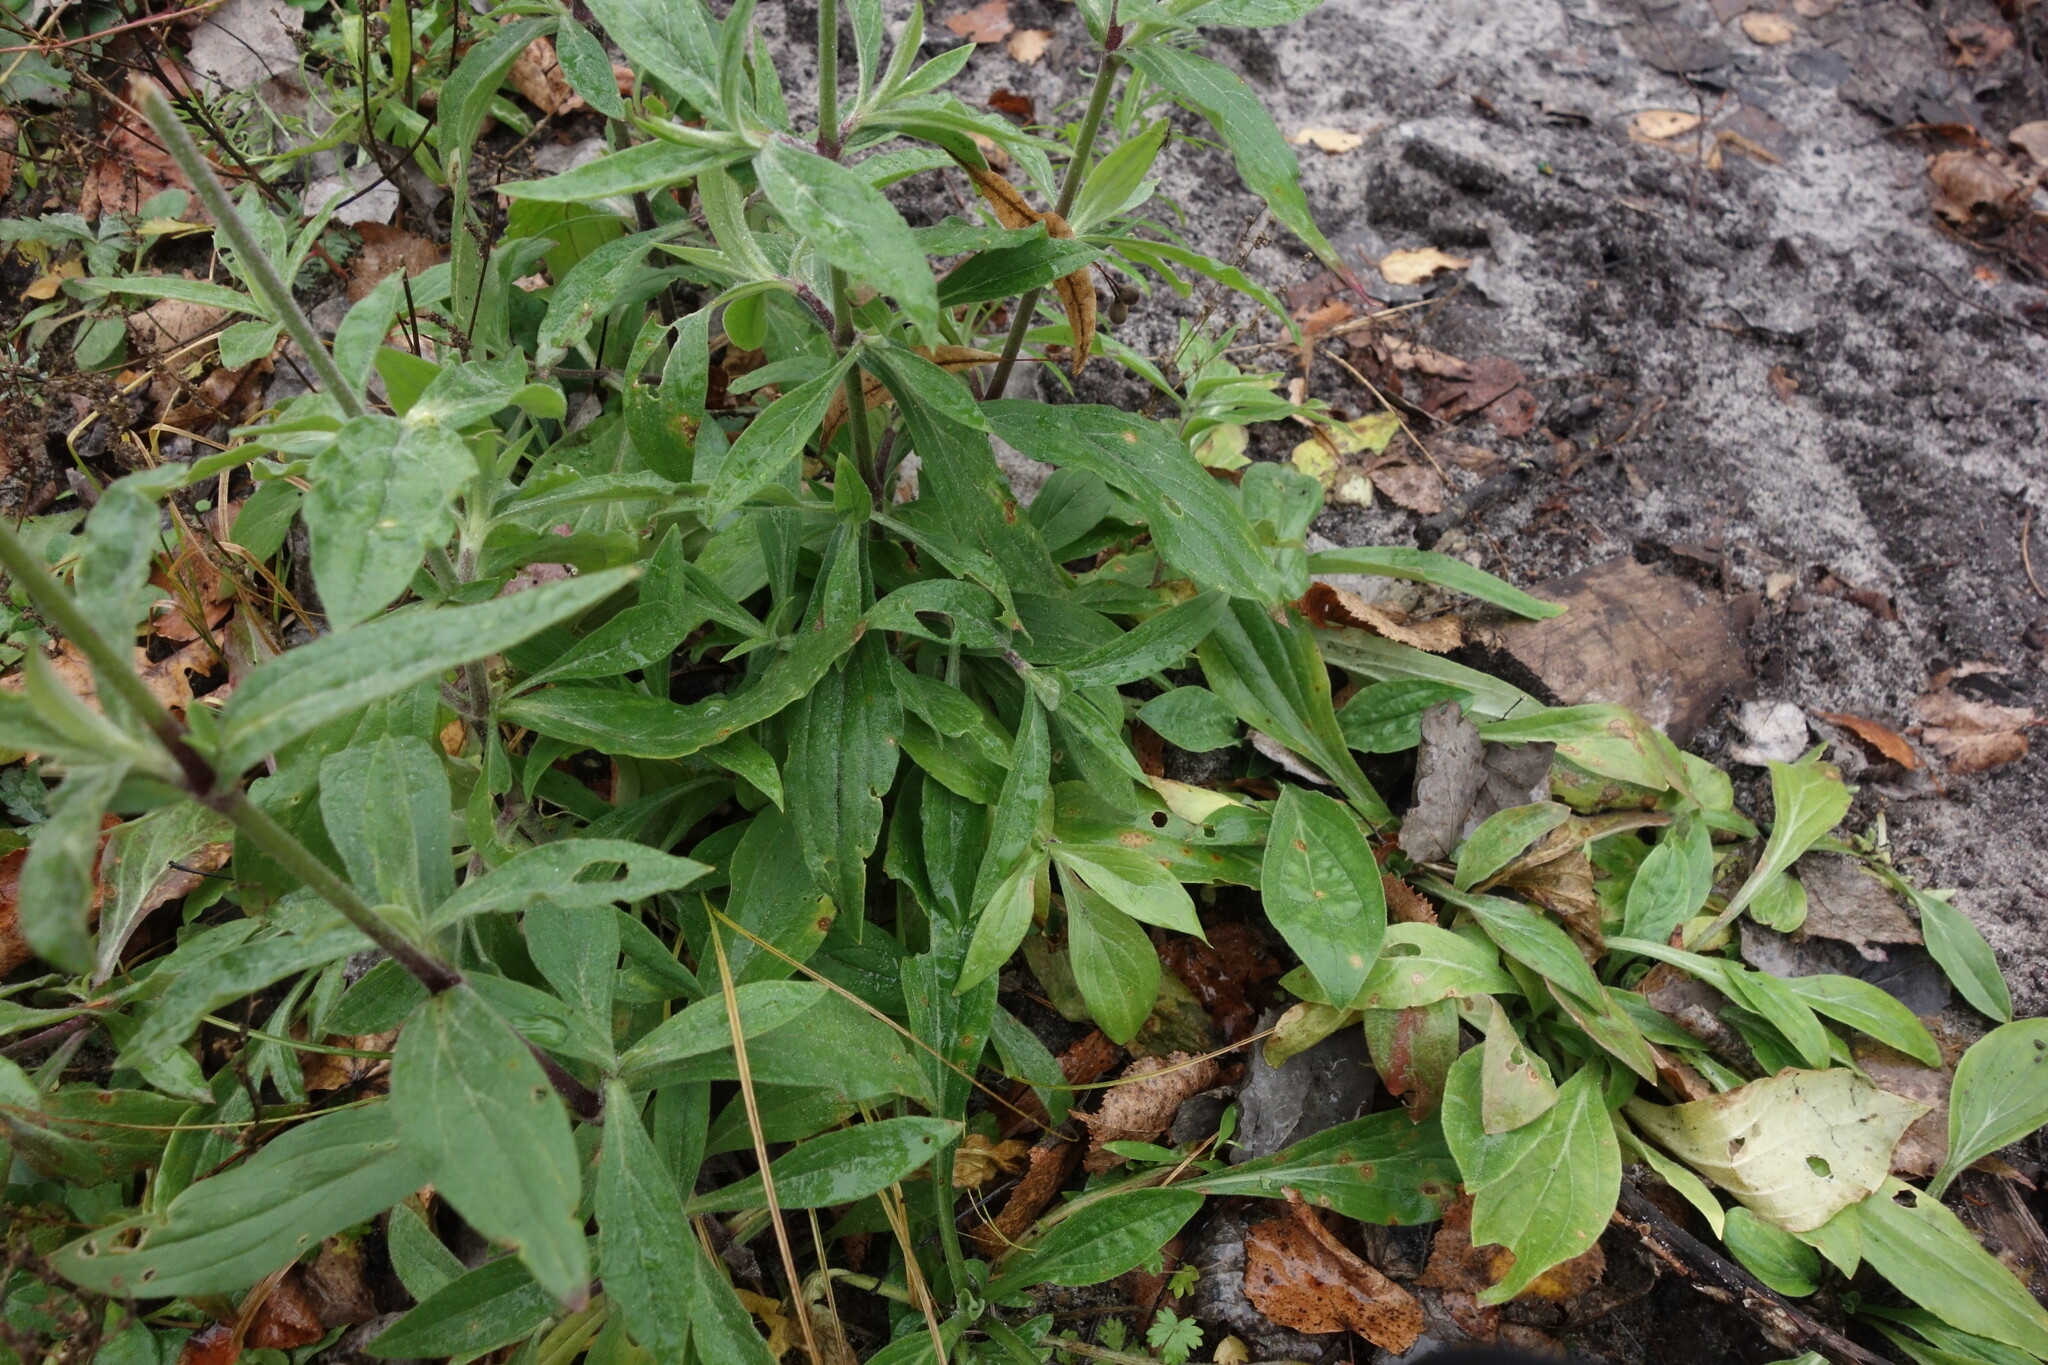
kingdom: Plantae
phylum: Tracheophyta
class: Magnoliopsida
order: Caryophyllales
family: Caryophyllaceae
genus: Silene
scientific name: Silene latifolia
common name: White campion
